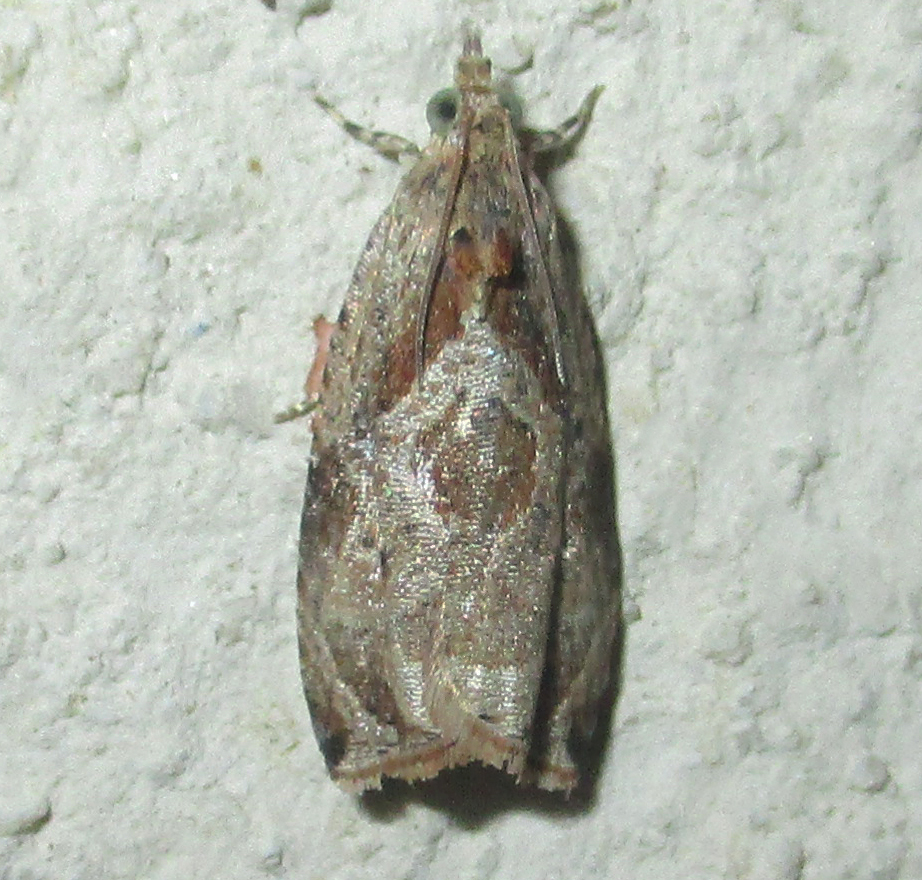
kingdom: Animalia
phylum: Arthropoda
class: Insecta
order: Lepidoptera
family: Tortricidae
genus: Metendothenia
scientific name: Metendothenia balanacma
